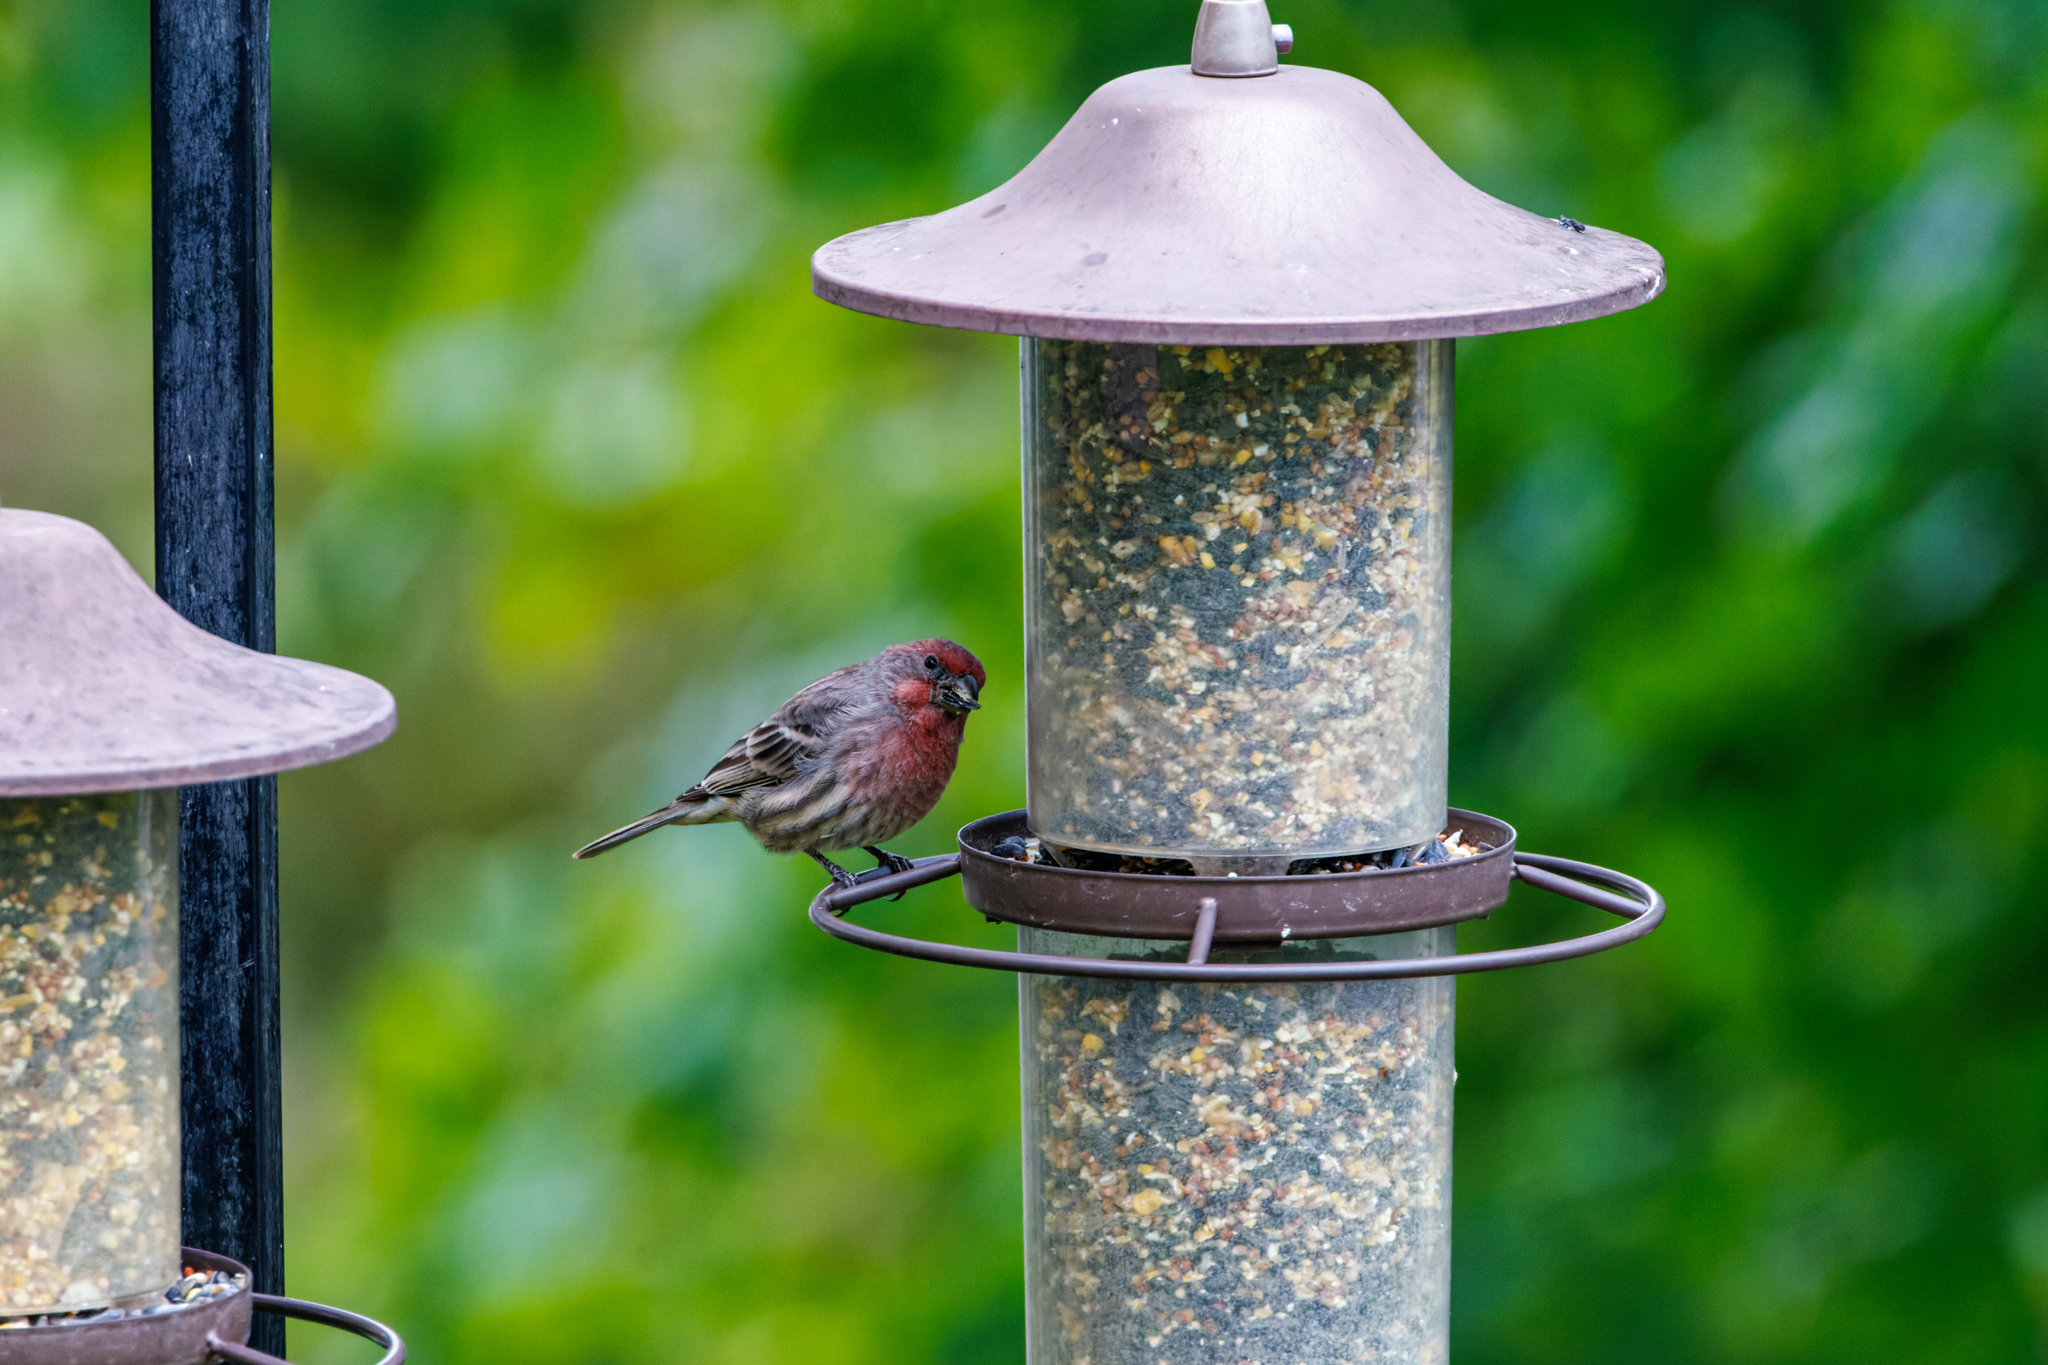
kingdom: Animalia
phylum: Chordata
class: Aves
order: Passeriformes
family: Fringillidae
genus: Haemorhous
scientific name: Haemorhous mexicanus
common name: House finch
